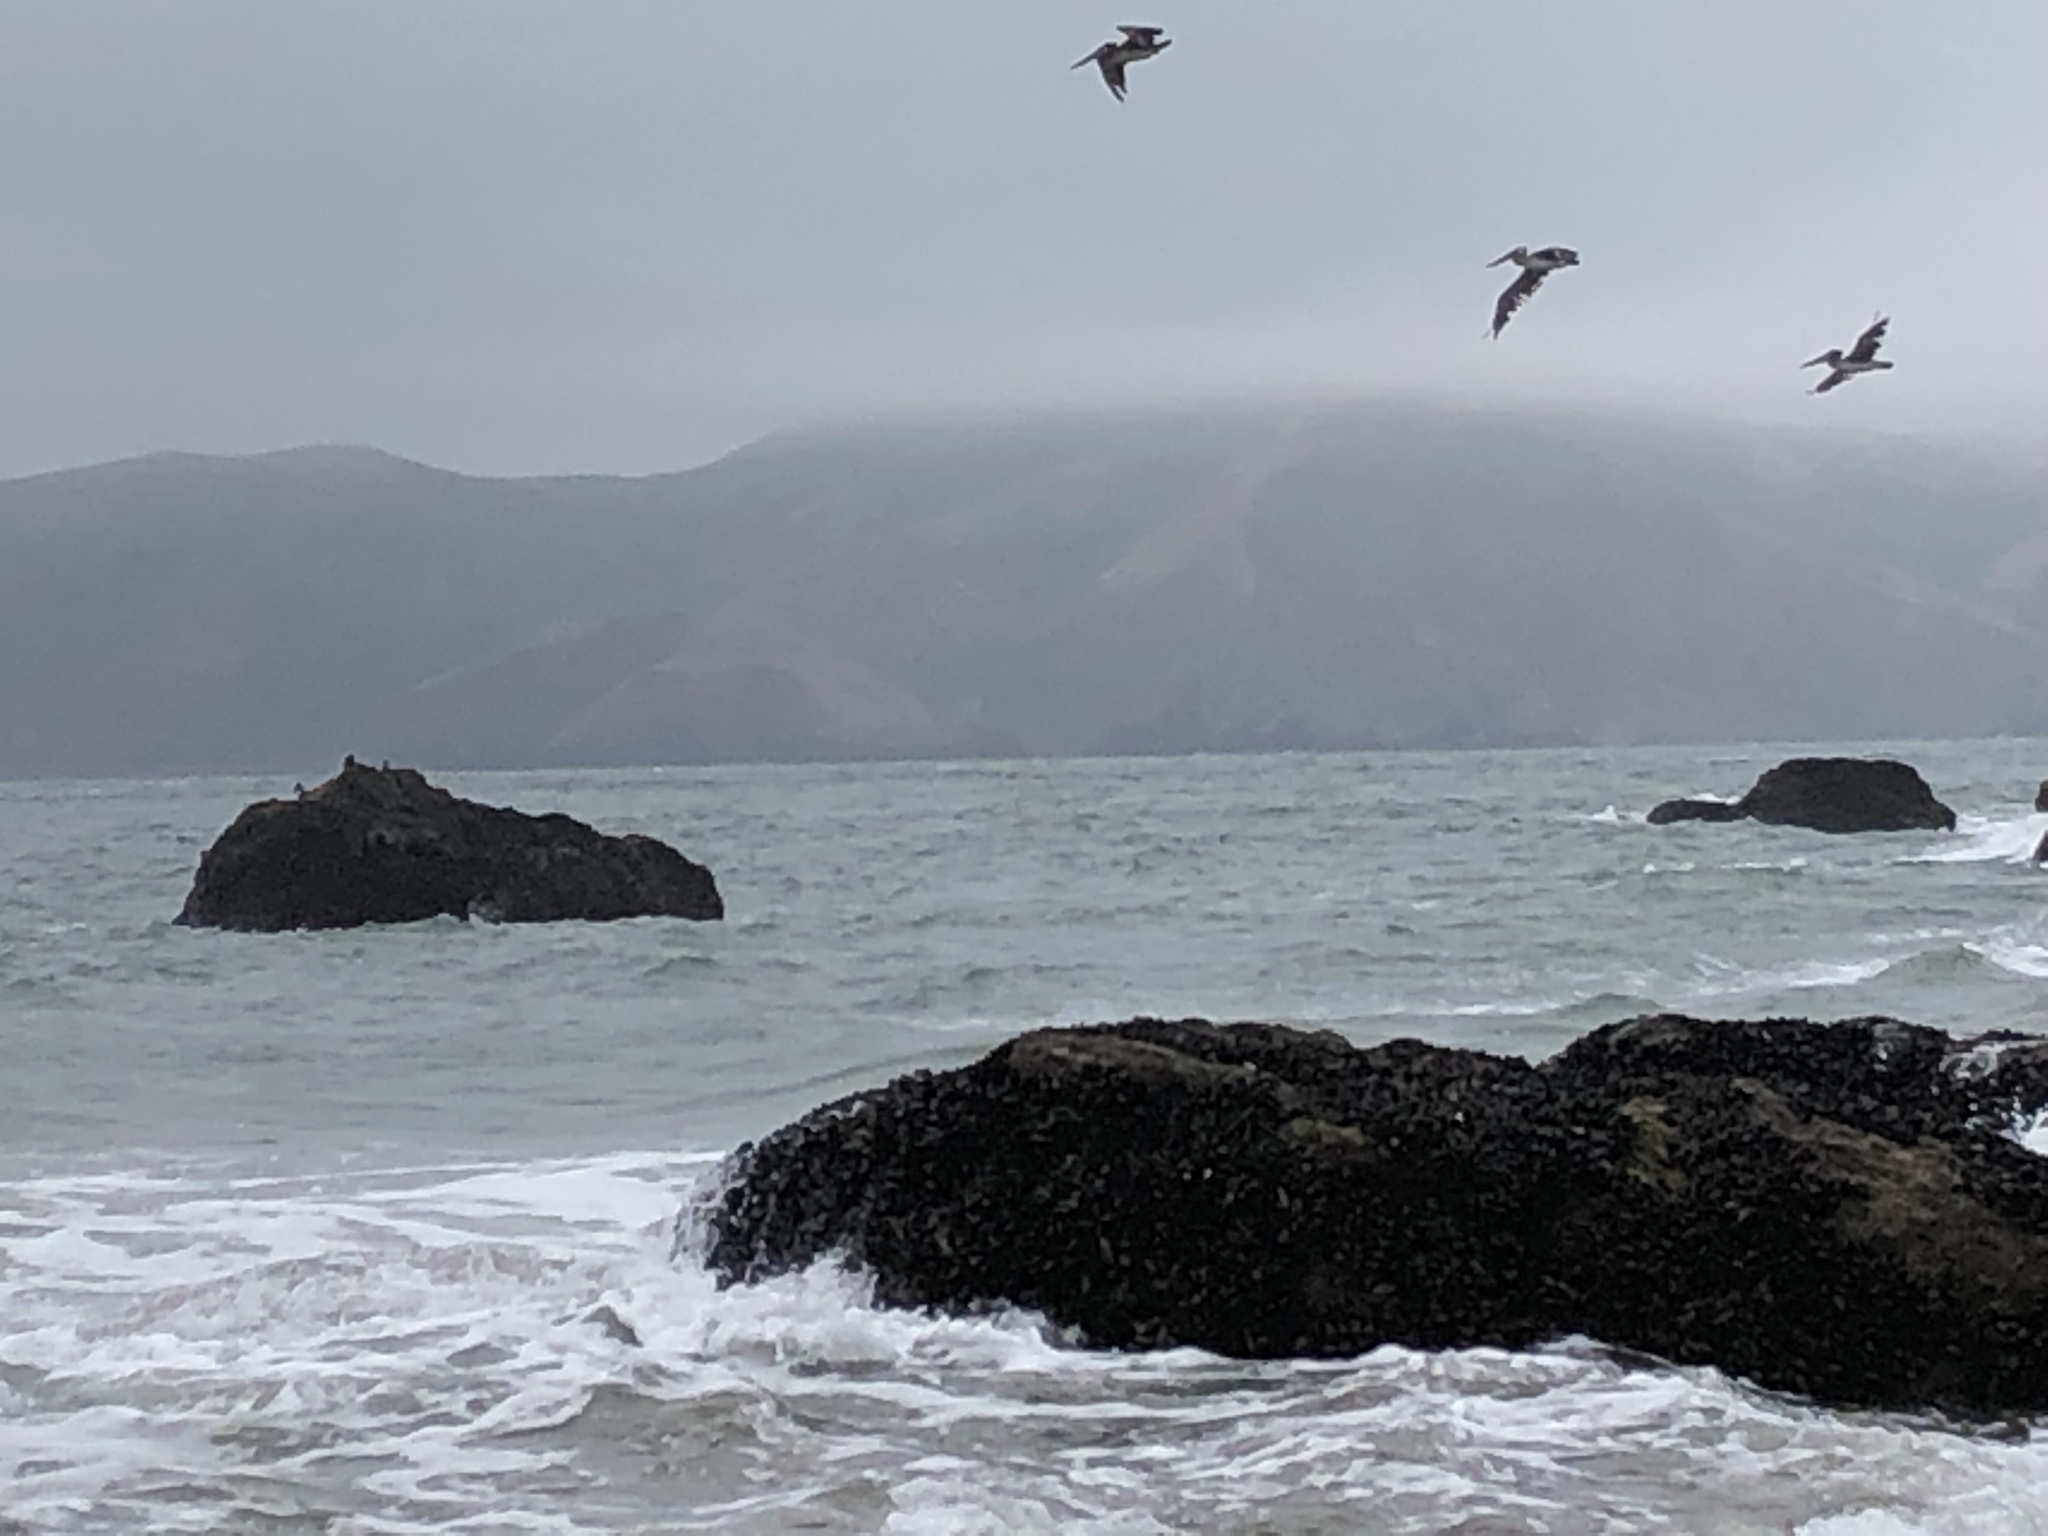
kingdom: Animalia
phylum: Chordata
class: Aves
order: Pelecaniformes
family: Pelecanidae
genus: Pelecanus
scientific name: Pelecanus occidentalis
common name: Brown pelican
